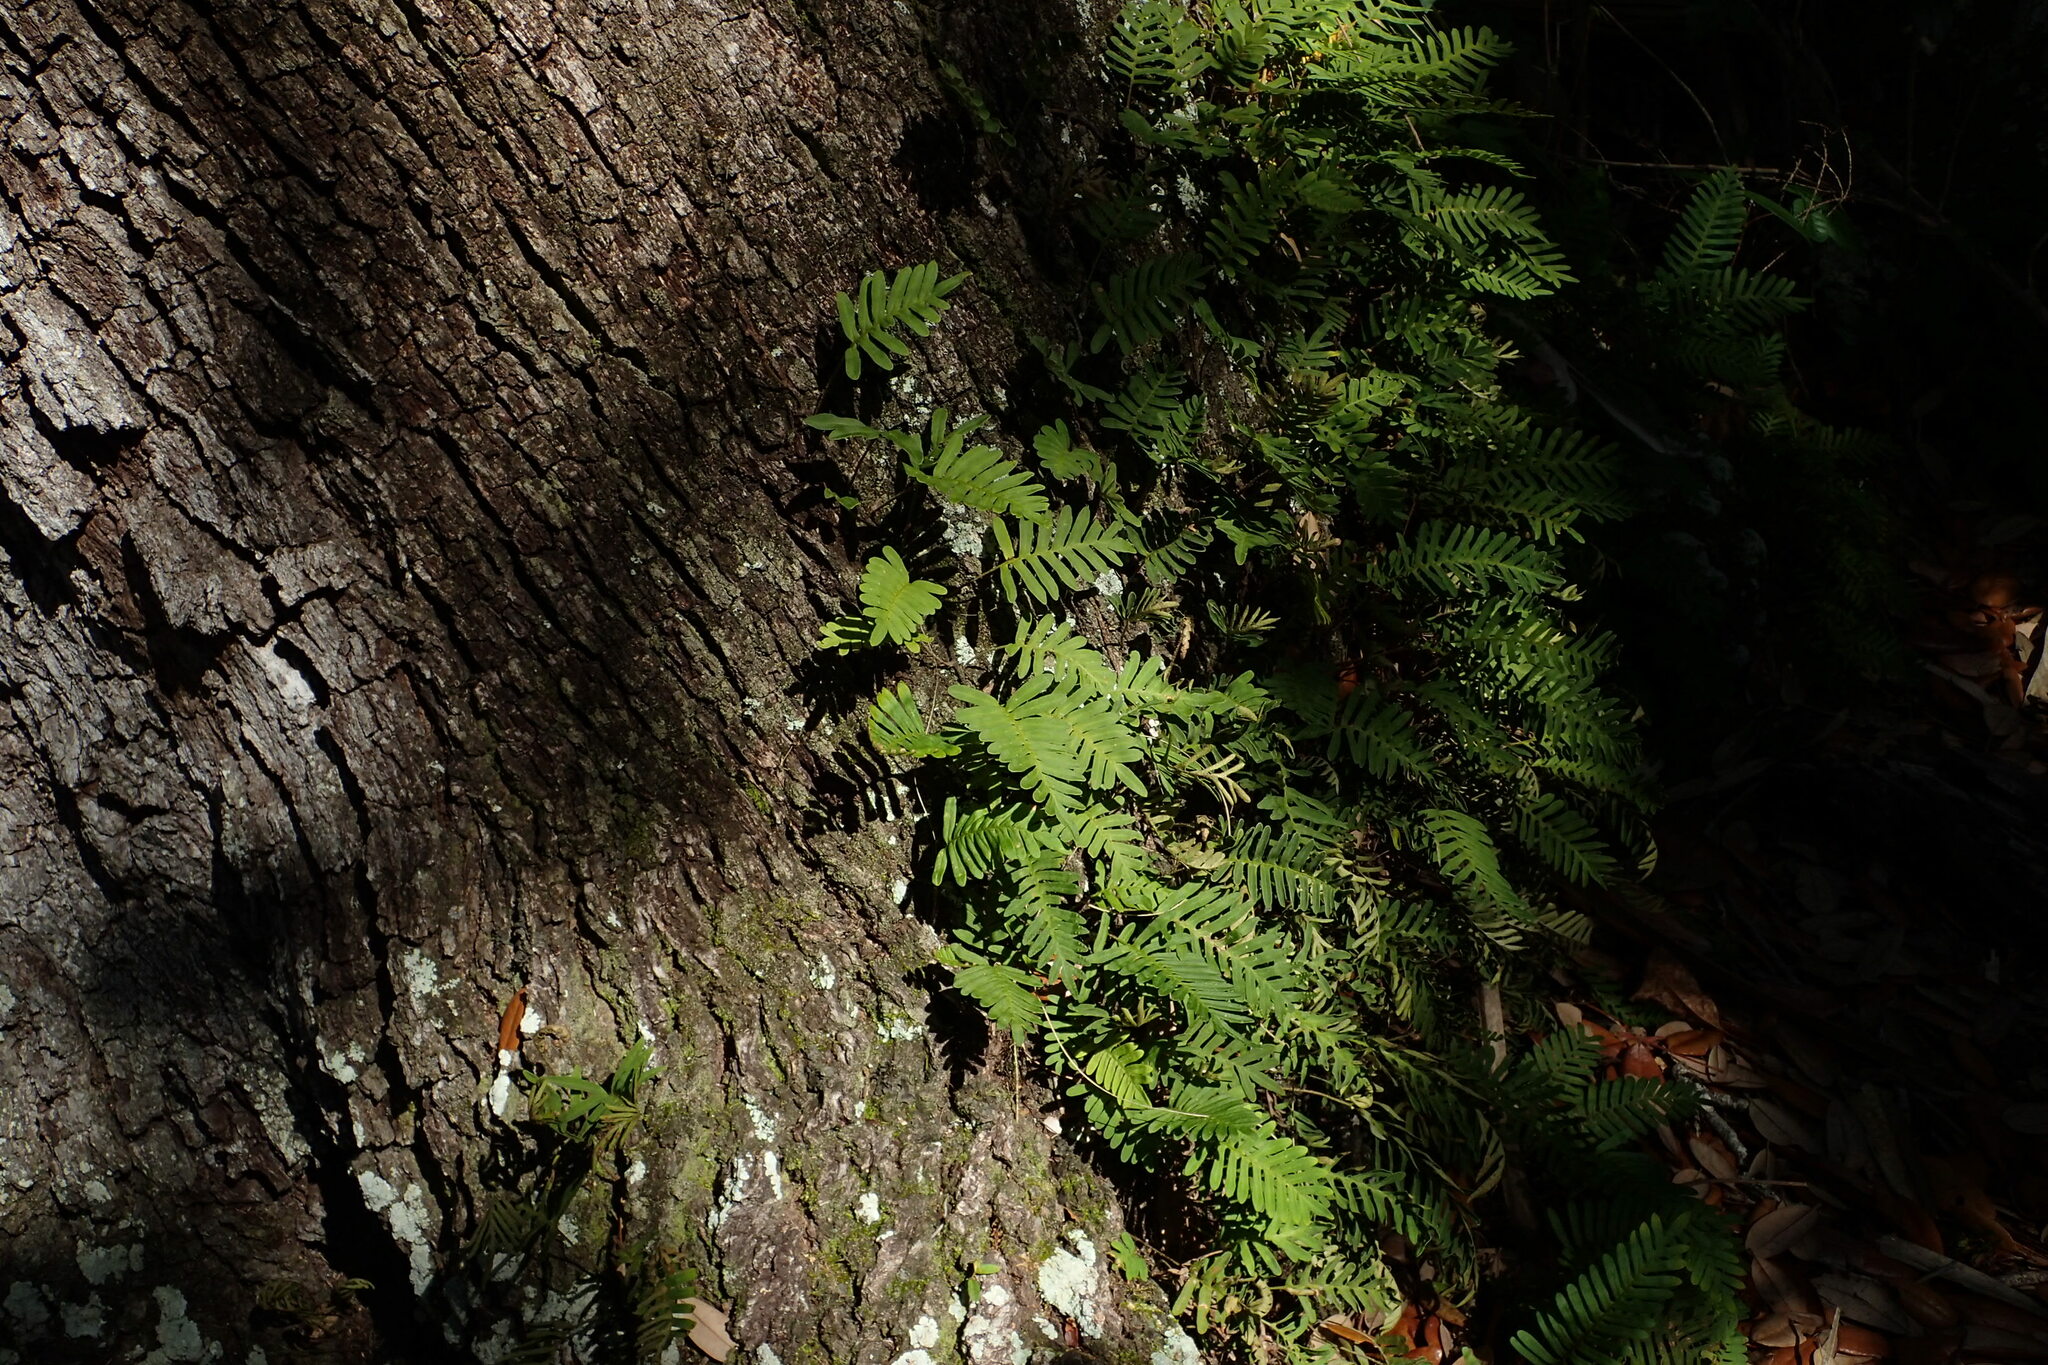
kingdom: Plantae
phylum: Tracheophyta
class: Polypodiopsida
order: Polypodiales
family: Polypodiaceae
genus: Pleopeltis
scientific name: Pleopeltis michauxiana
